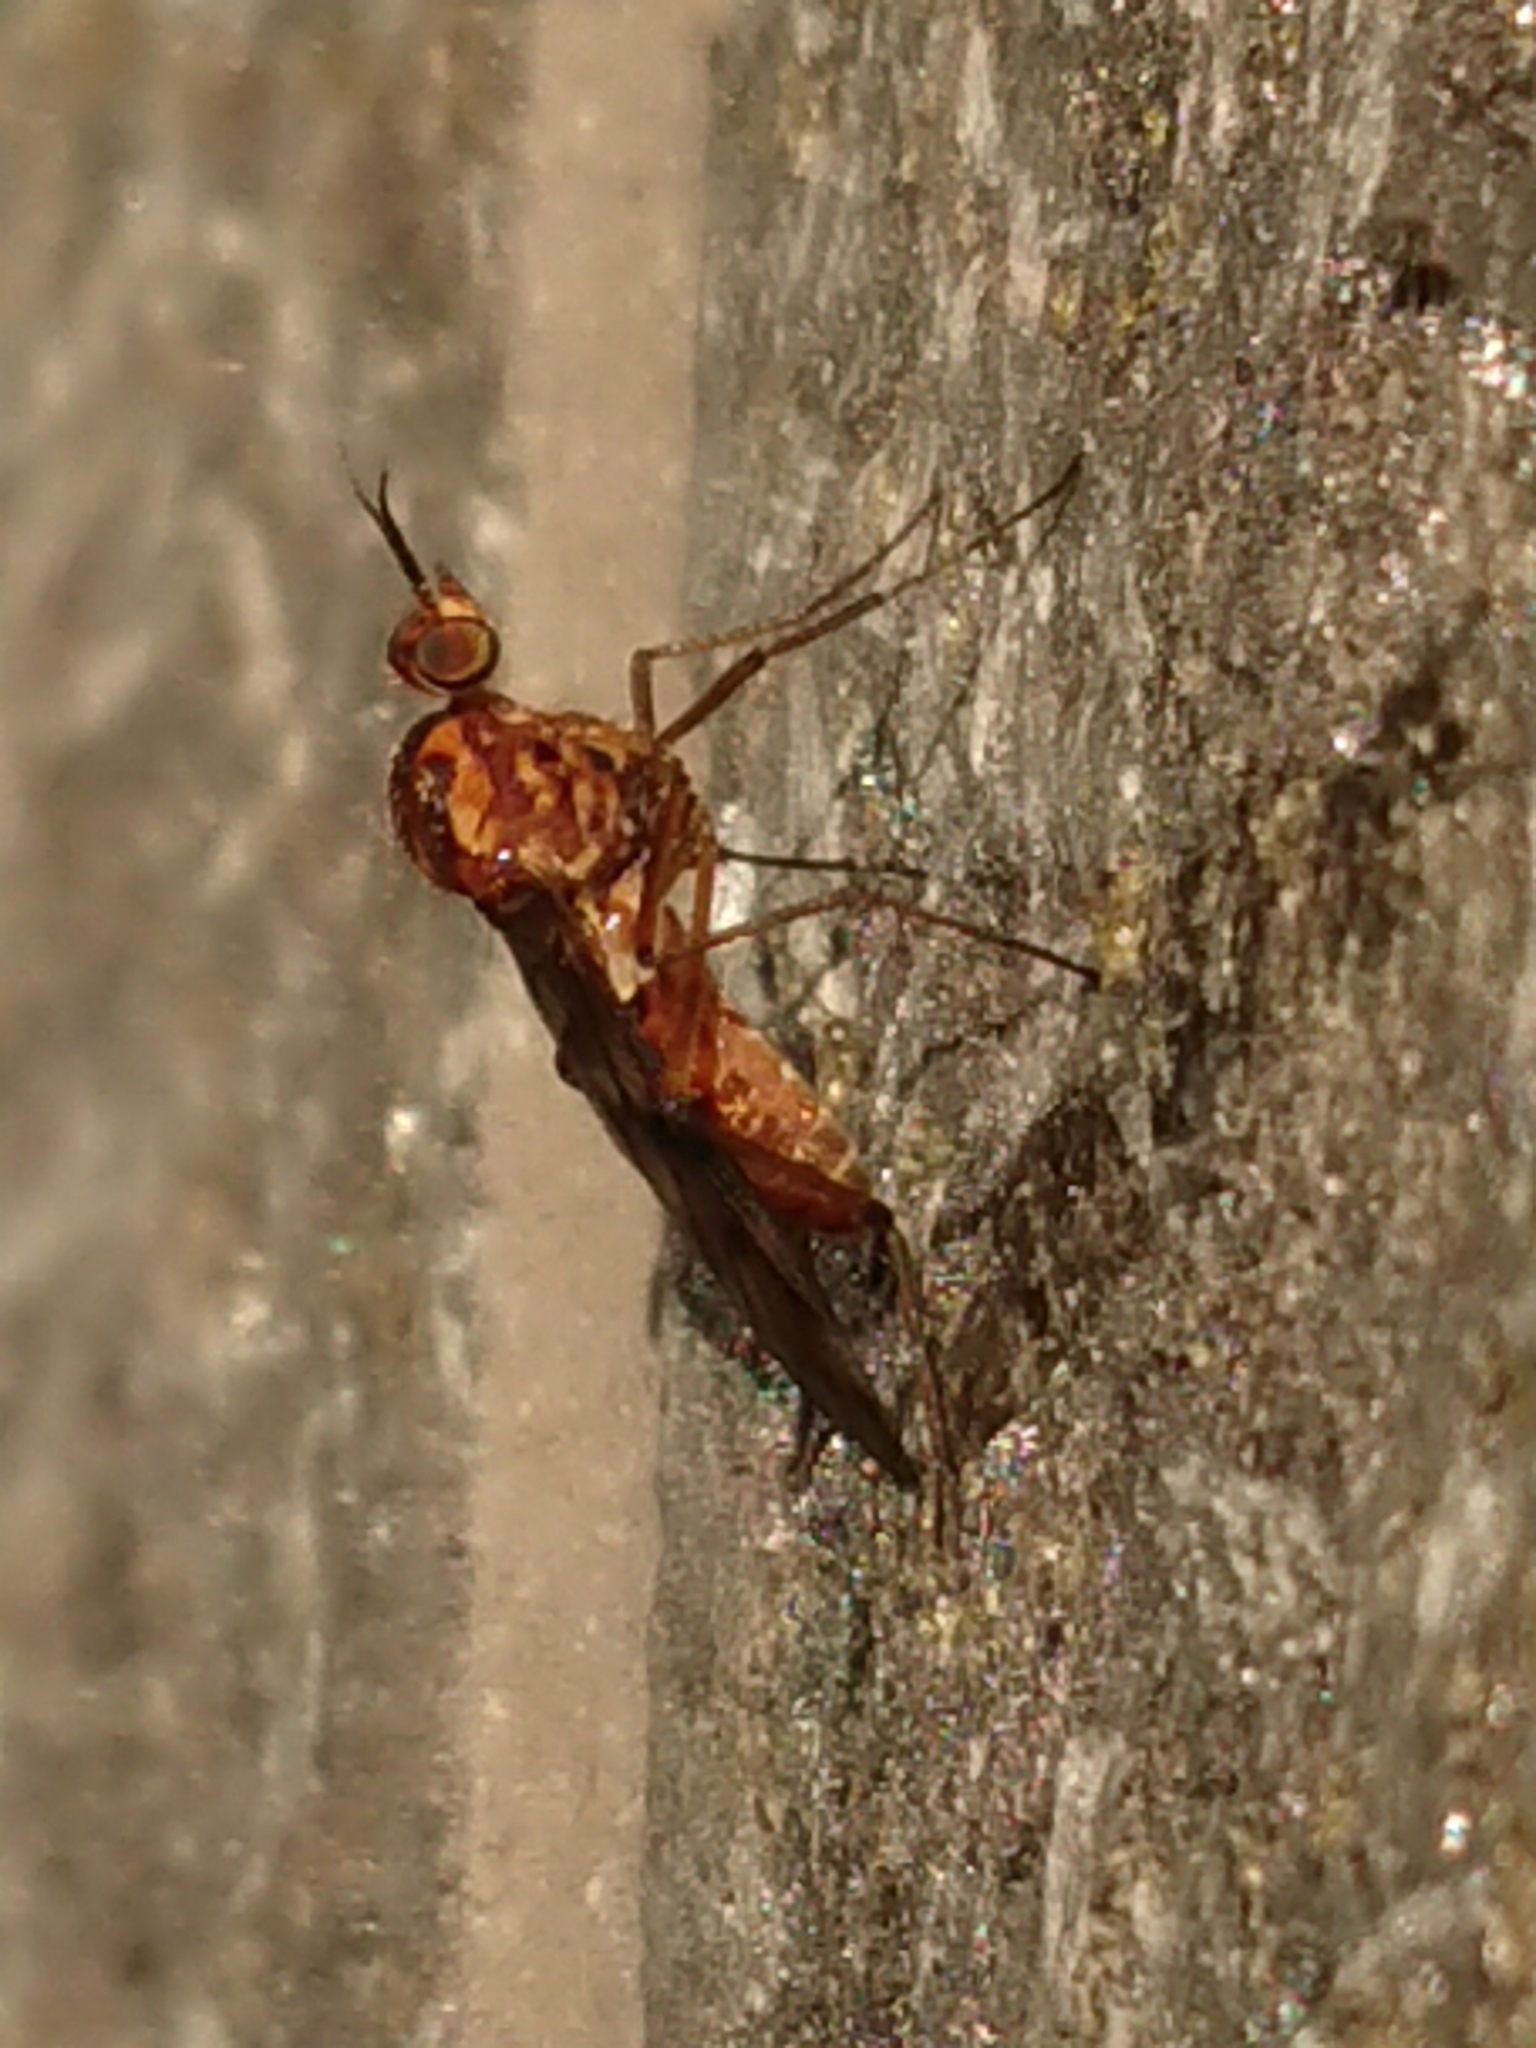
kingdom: Animalia
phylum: Arthropoda
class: Insecta
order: Diptera
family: Anisopodidae
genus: Sylvicola
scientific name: Sylvicola dubius
